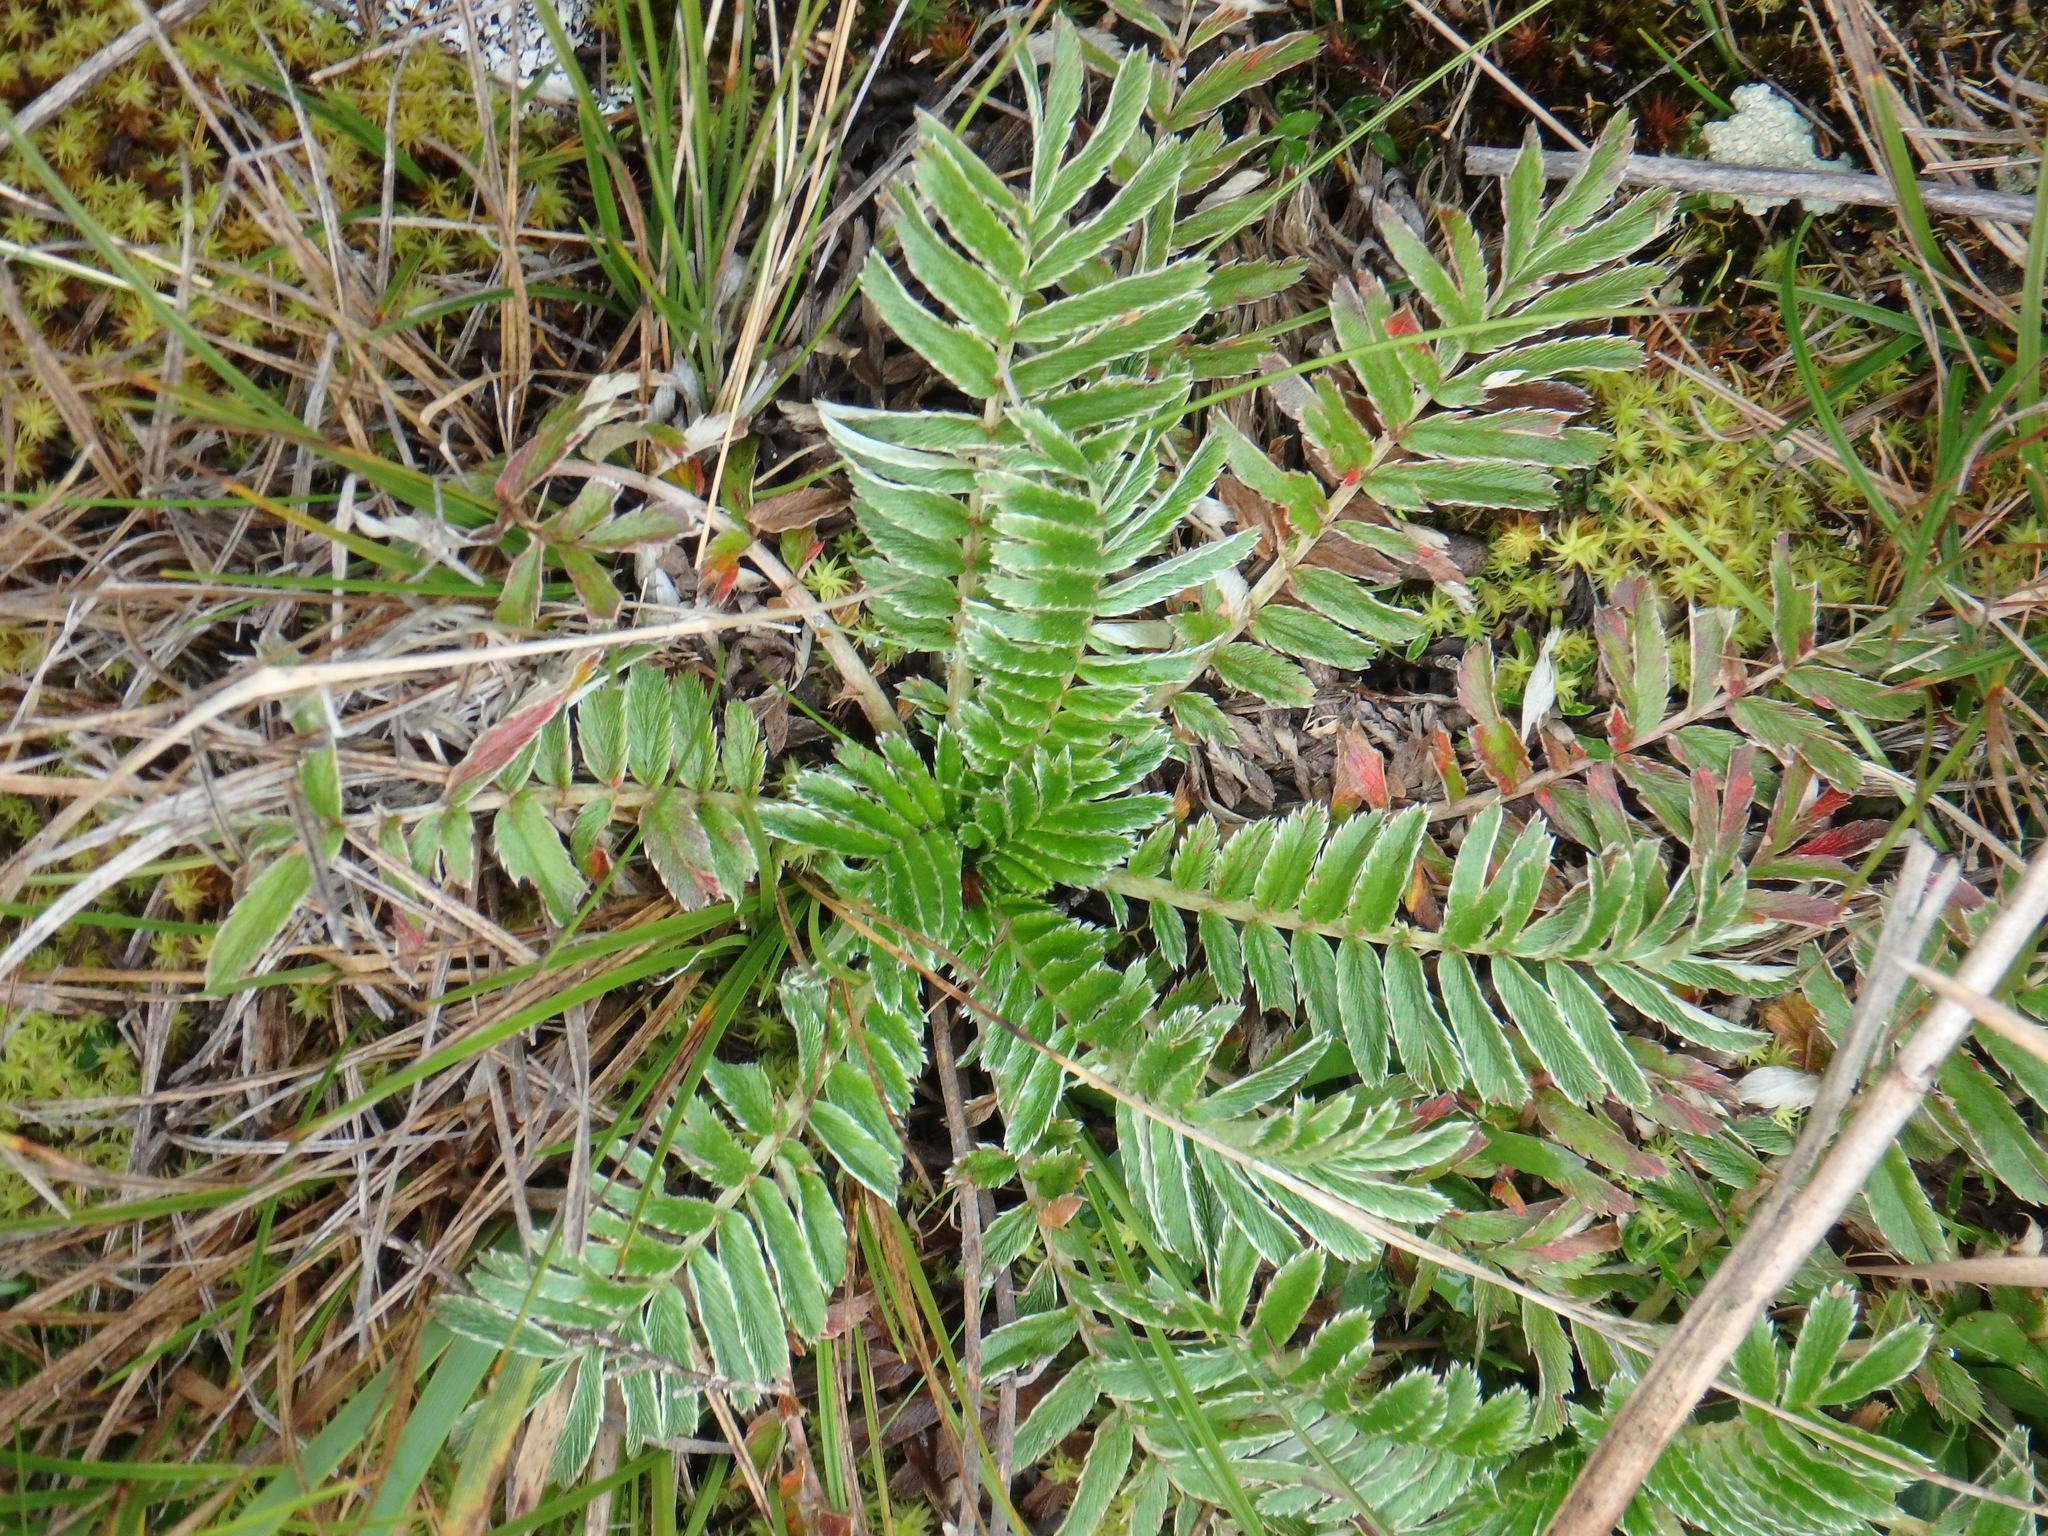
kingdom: Plantae
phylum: Tracheophyta
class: Magnoliopsida
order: Rosales
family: Rosaceae
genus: Acaena
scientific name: Acaena cylindristachya
